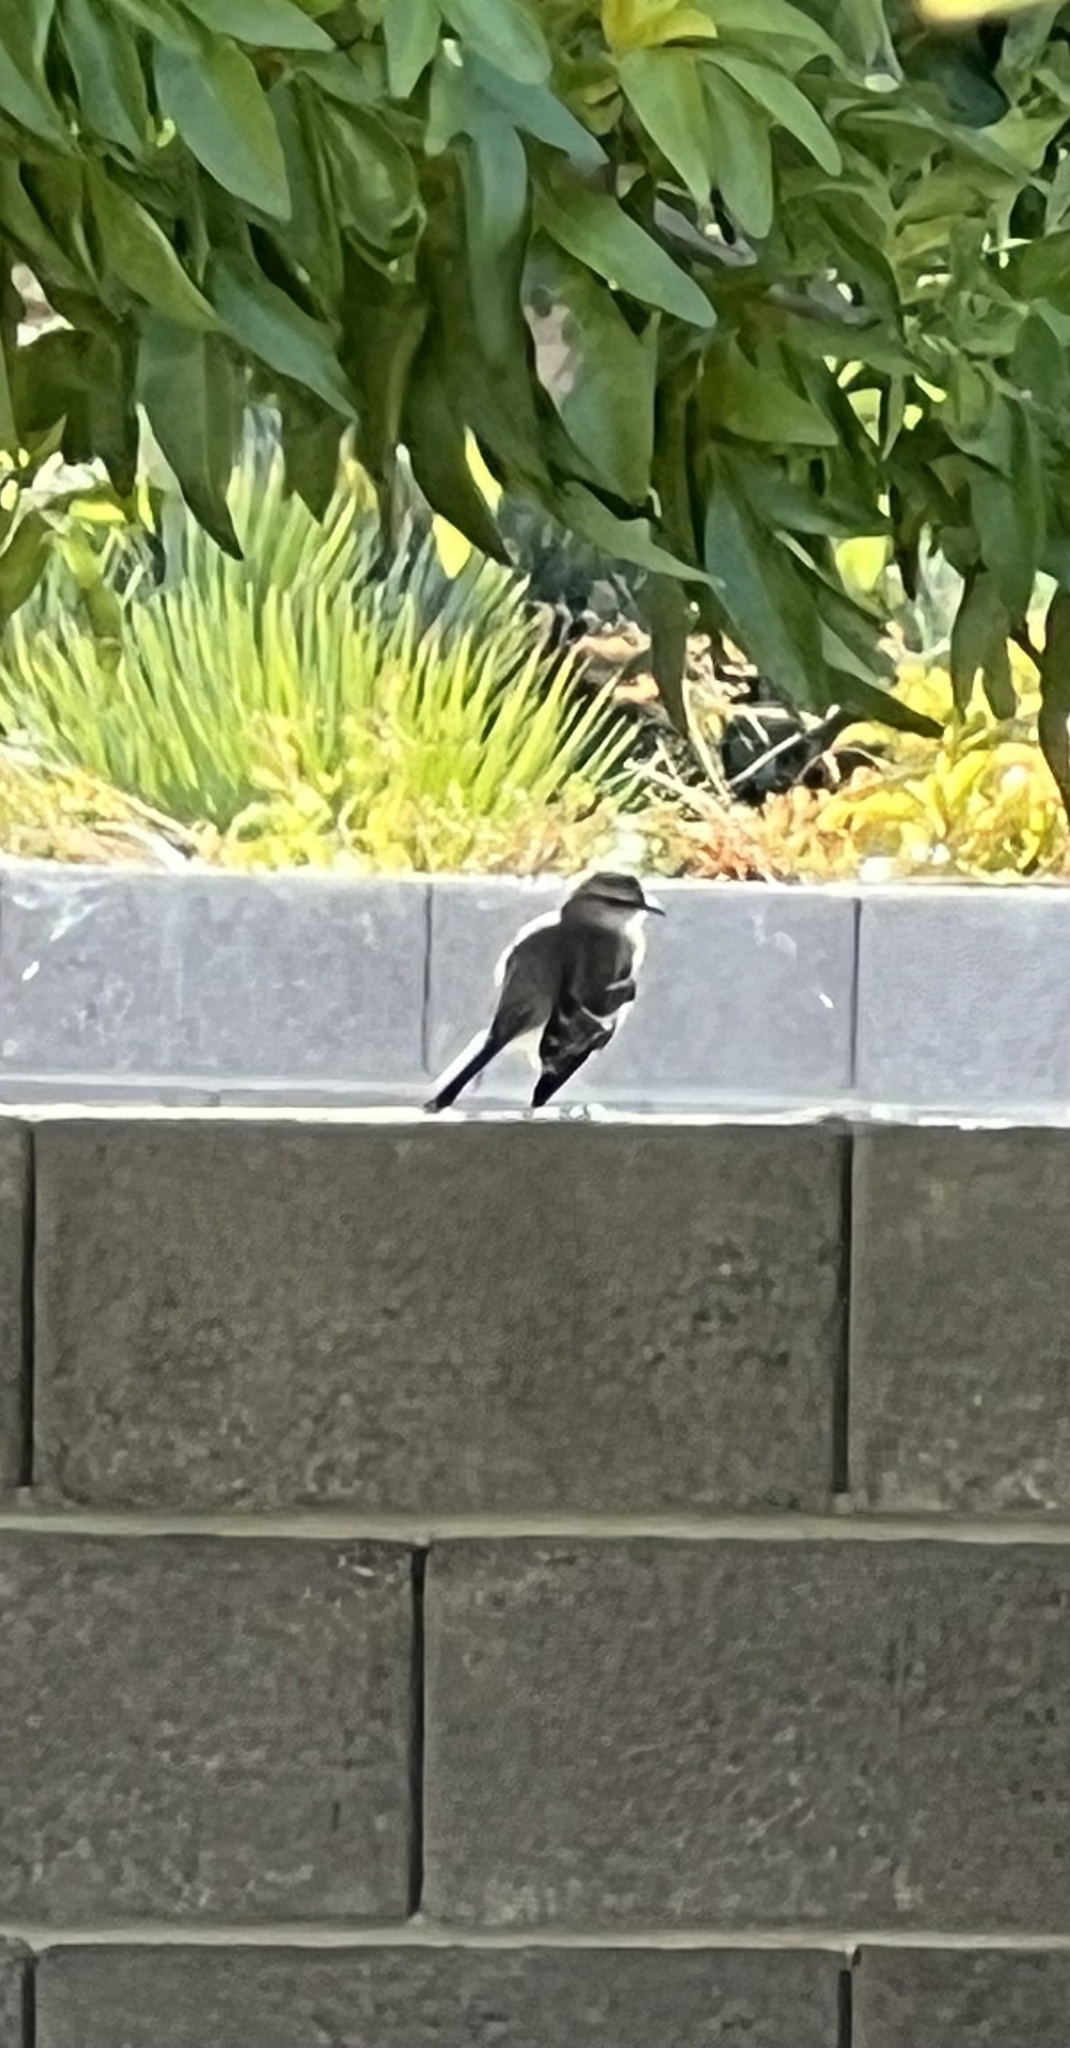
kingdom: Animalia
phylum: Chordata
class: Aves
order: Passeriformes
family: Mimidae
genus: Mimus
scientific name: Mimus polyglottos
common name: Northern mockingbird
